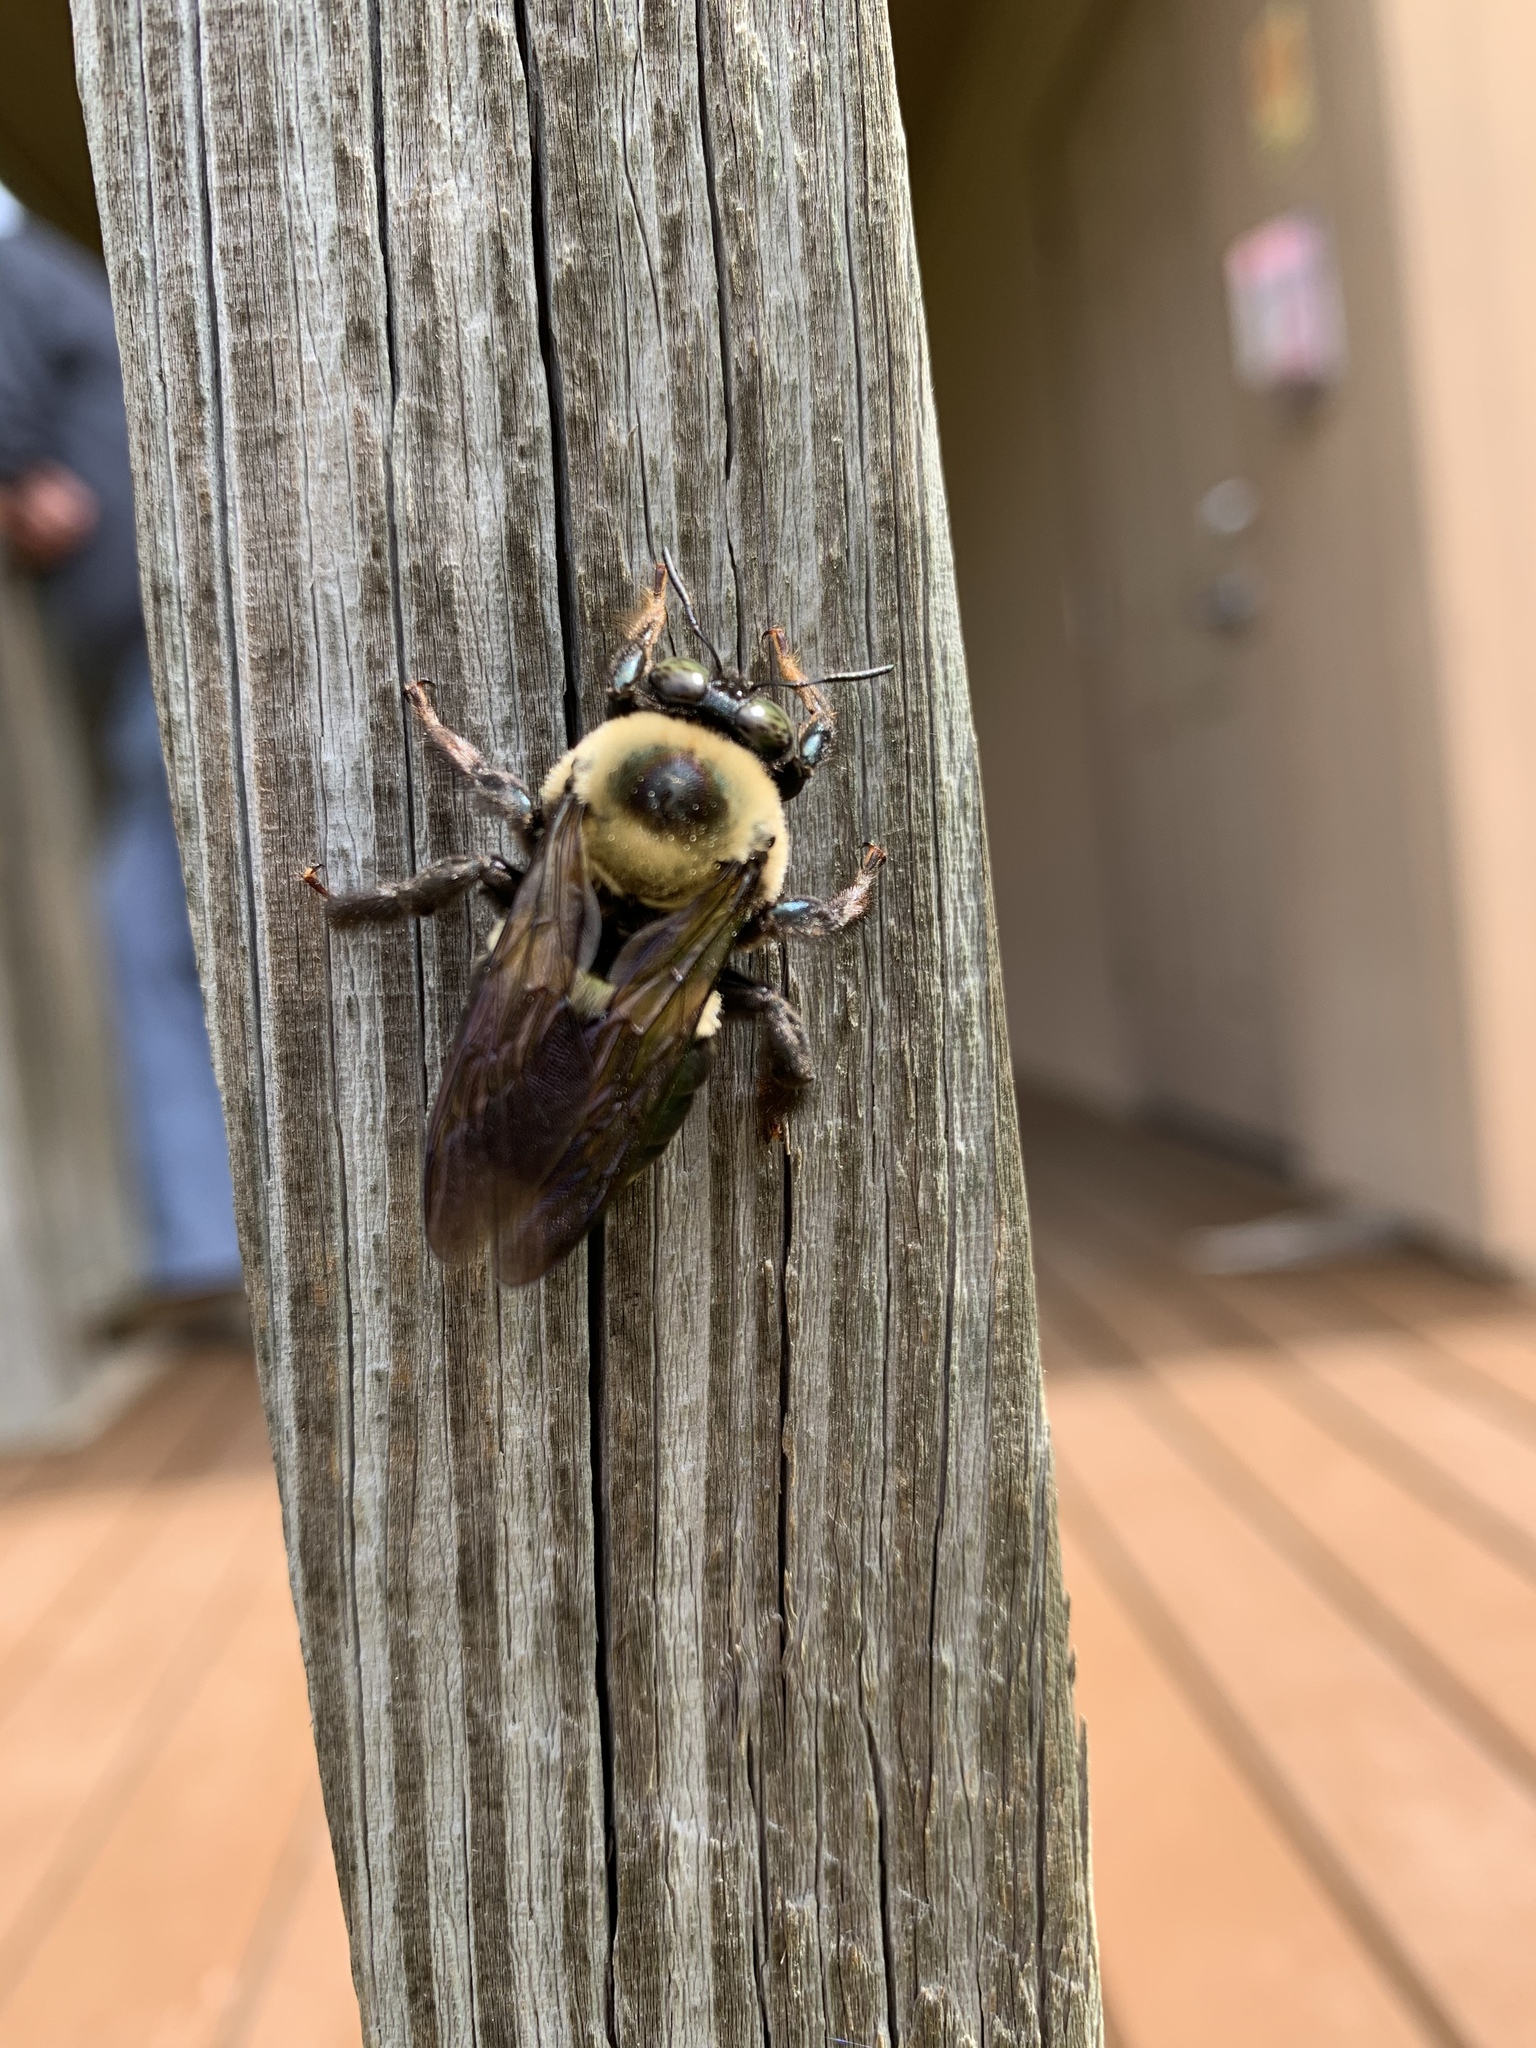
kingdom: Animalia
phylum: Arthropoda
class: Insecta
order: Hymenoptera
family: Apidae
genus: Xylocopa
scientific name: Xylocopa virginica
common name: Carpenter bee
